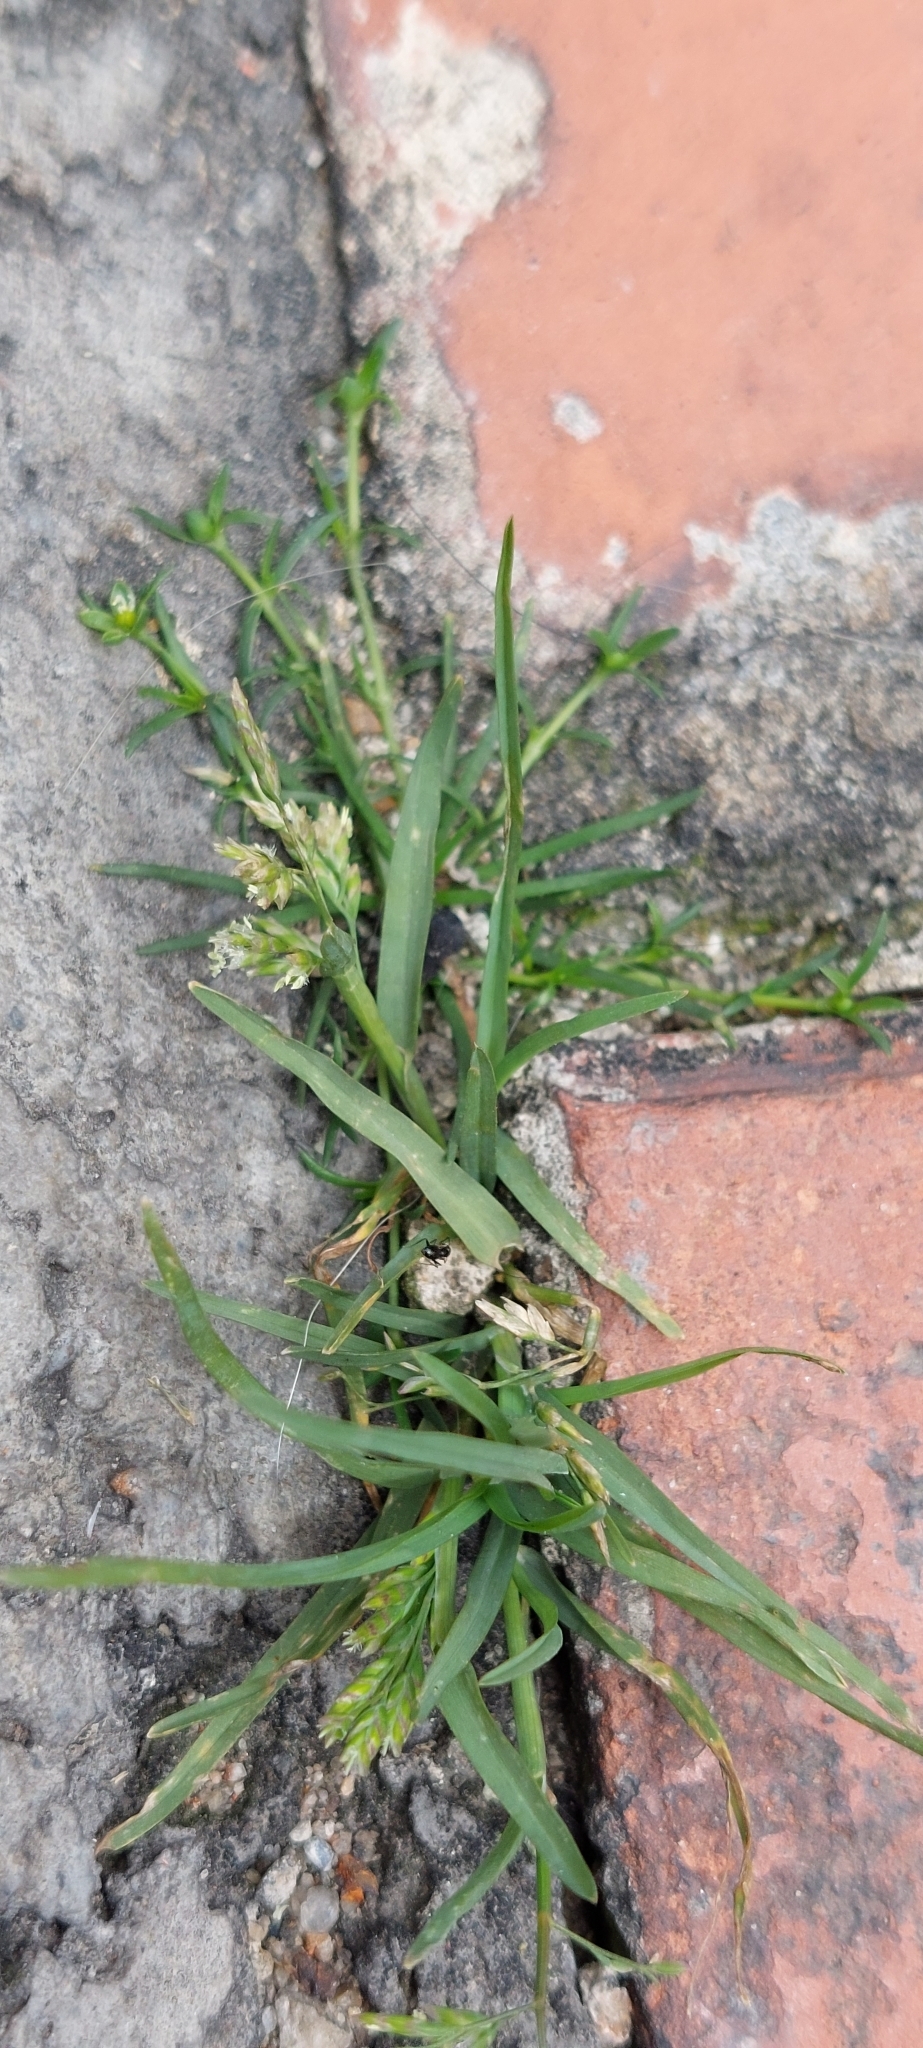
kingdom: Plantae
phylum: Tracheophyta
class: Liliopsida
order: Poales
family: Poaceae
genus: Poa
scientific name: Poa annua
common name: Annual bluegrass
